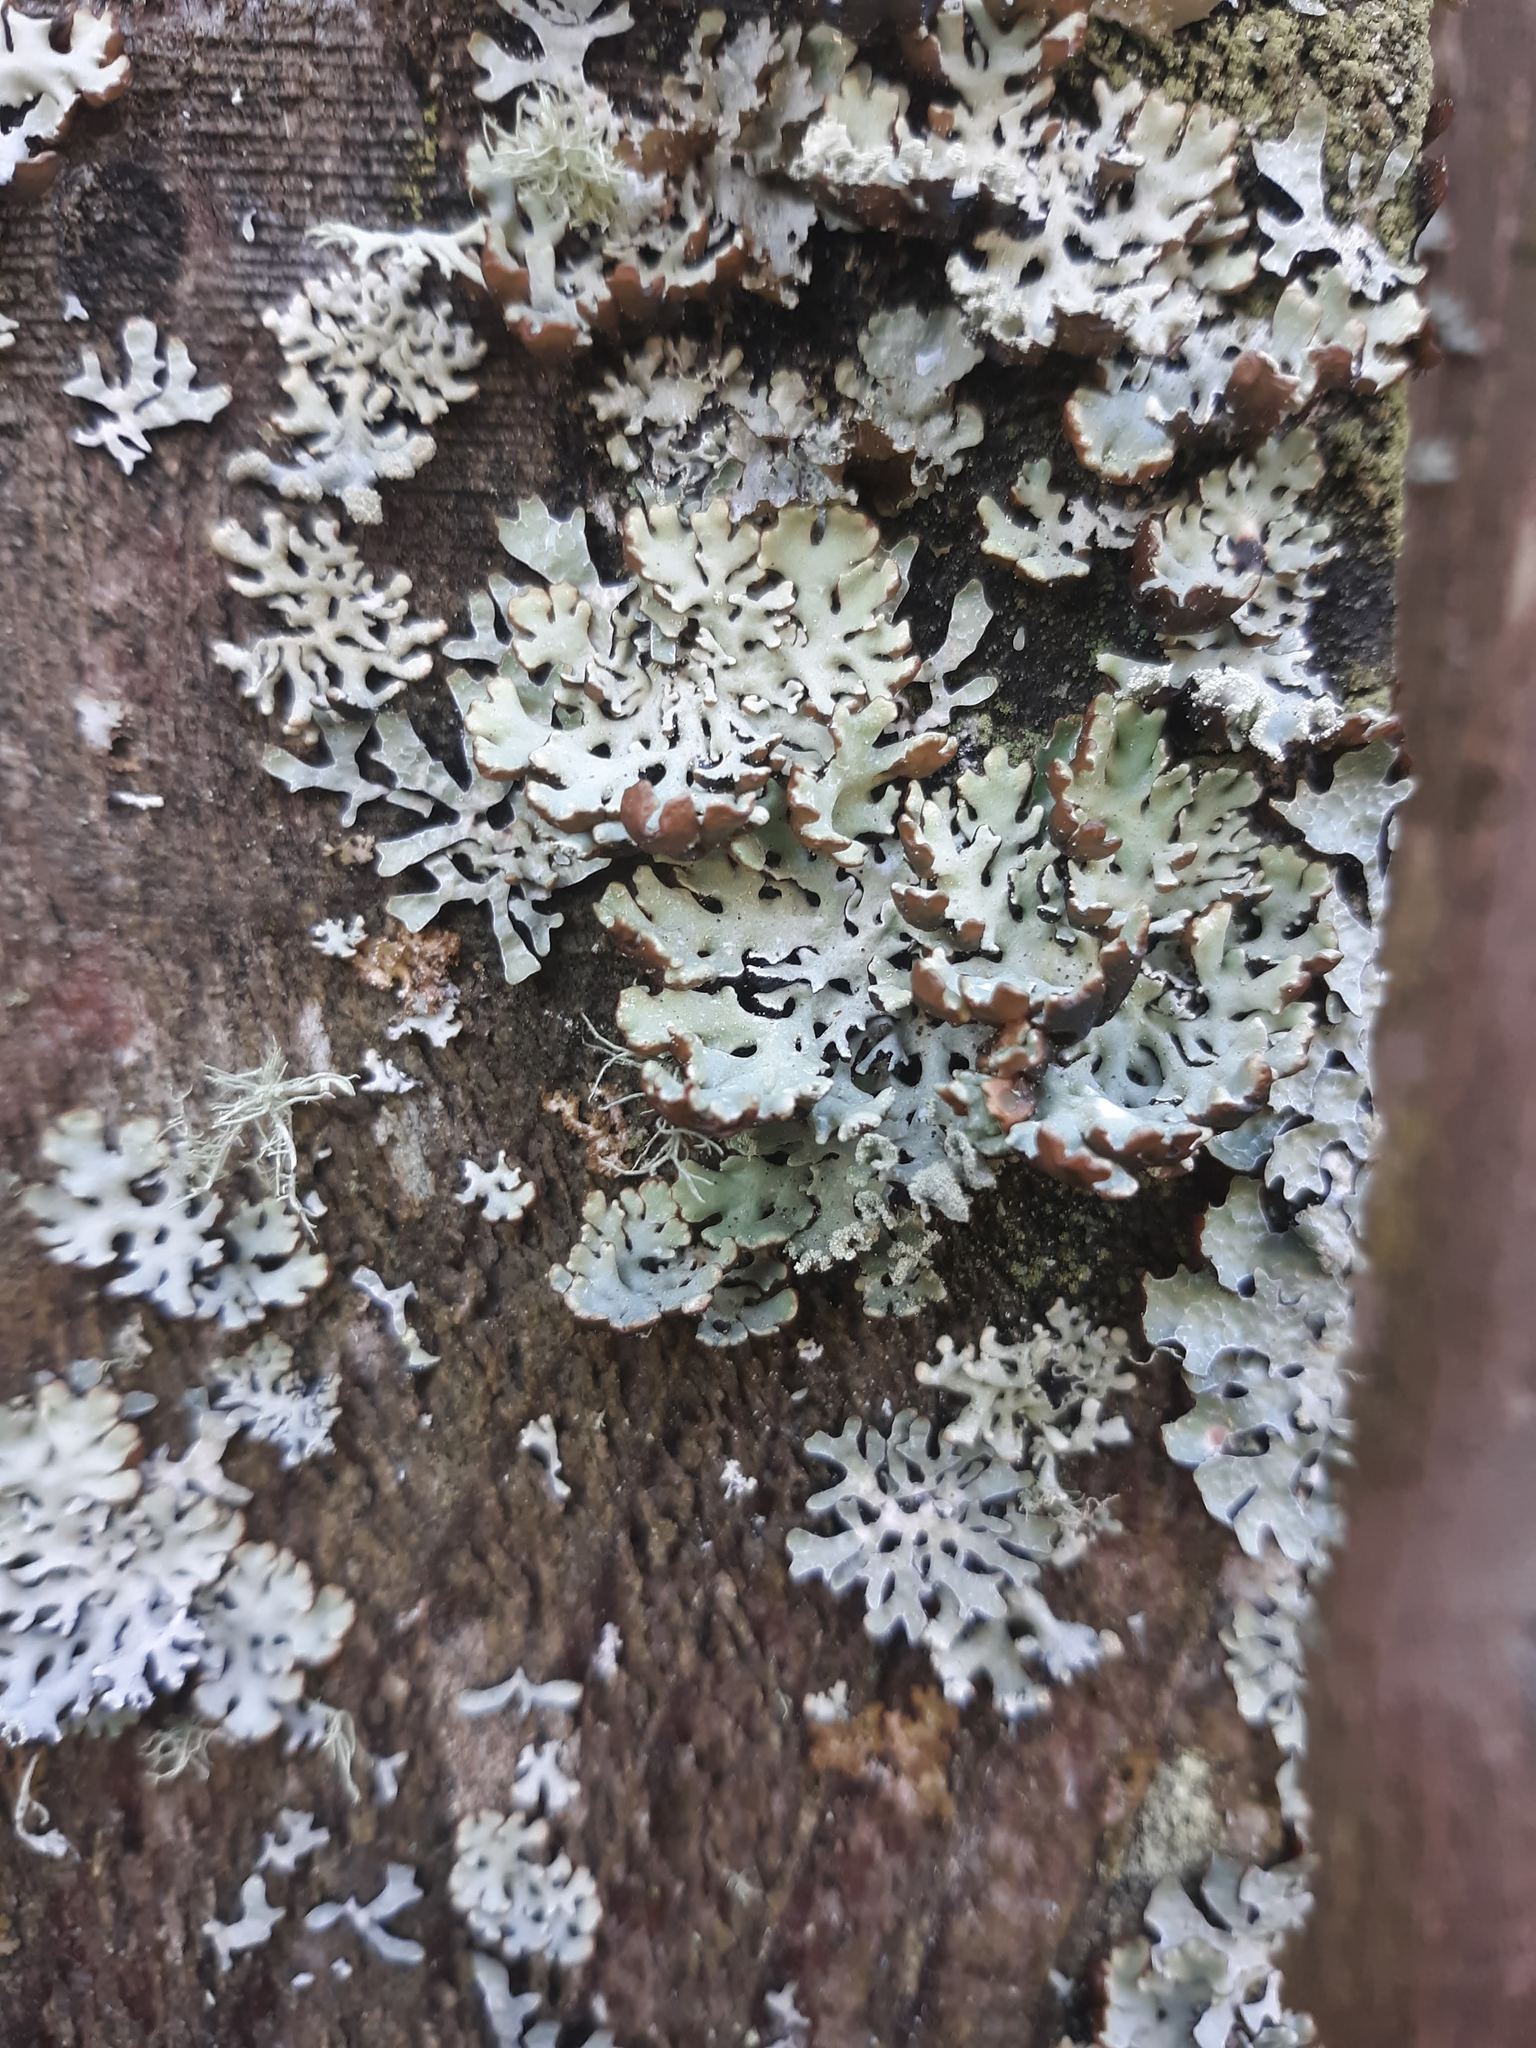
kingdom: Fungi
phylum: Ascomycota
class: Lecanoromycetes
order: Lecanorales
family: Parmeliaceae
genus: Hypogymnia
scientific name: Hypogymnia physodes
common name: Dark crottle
